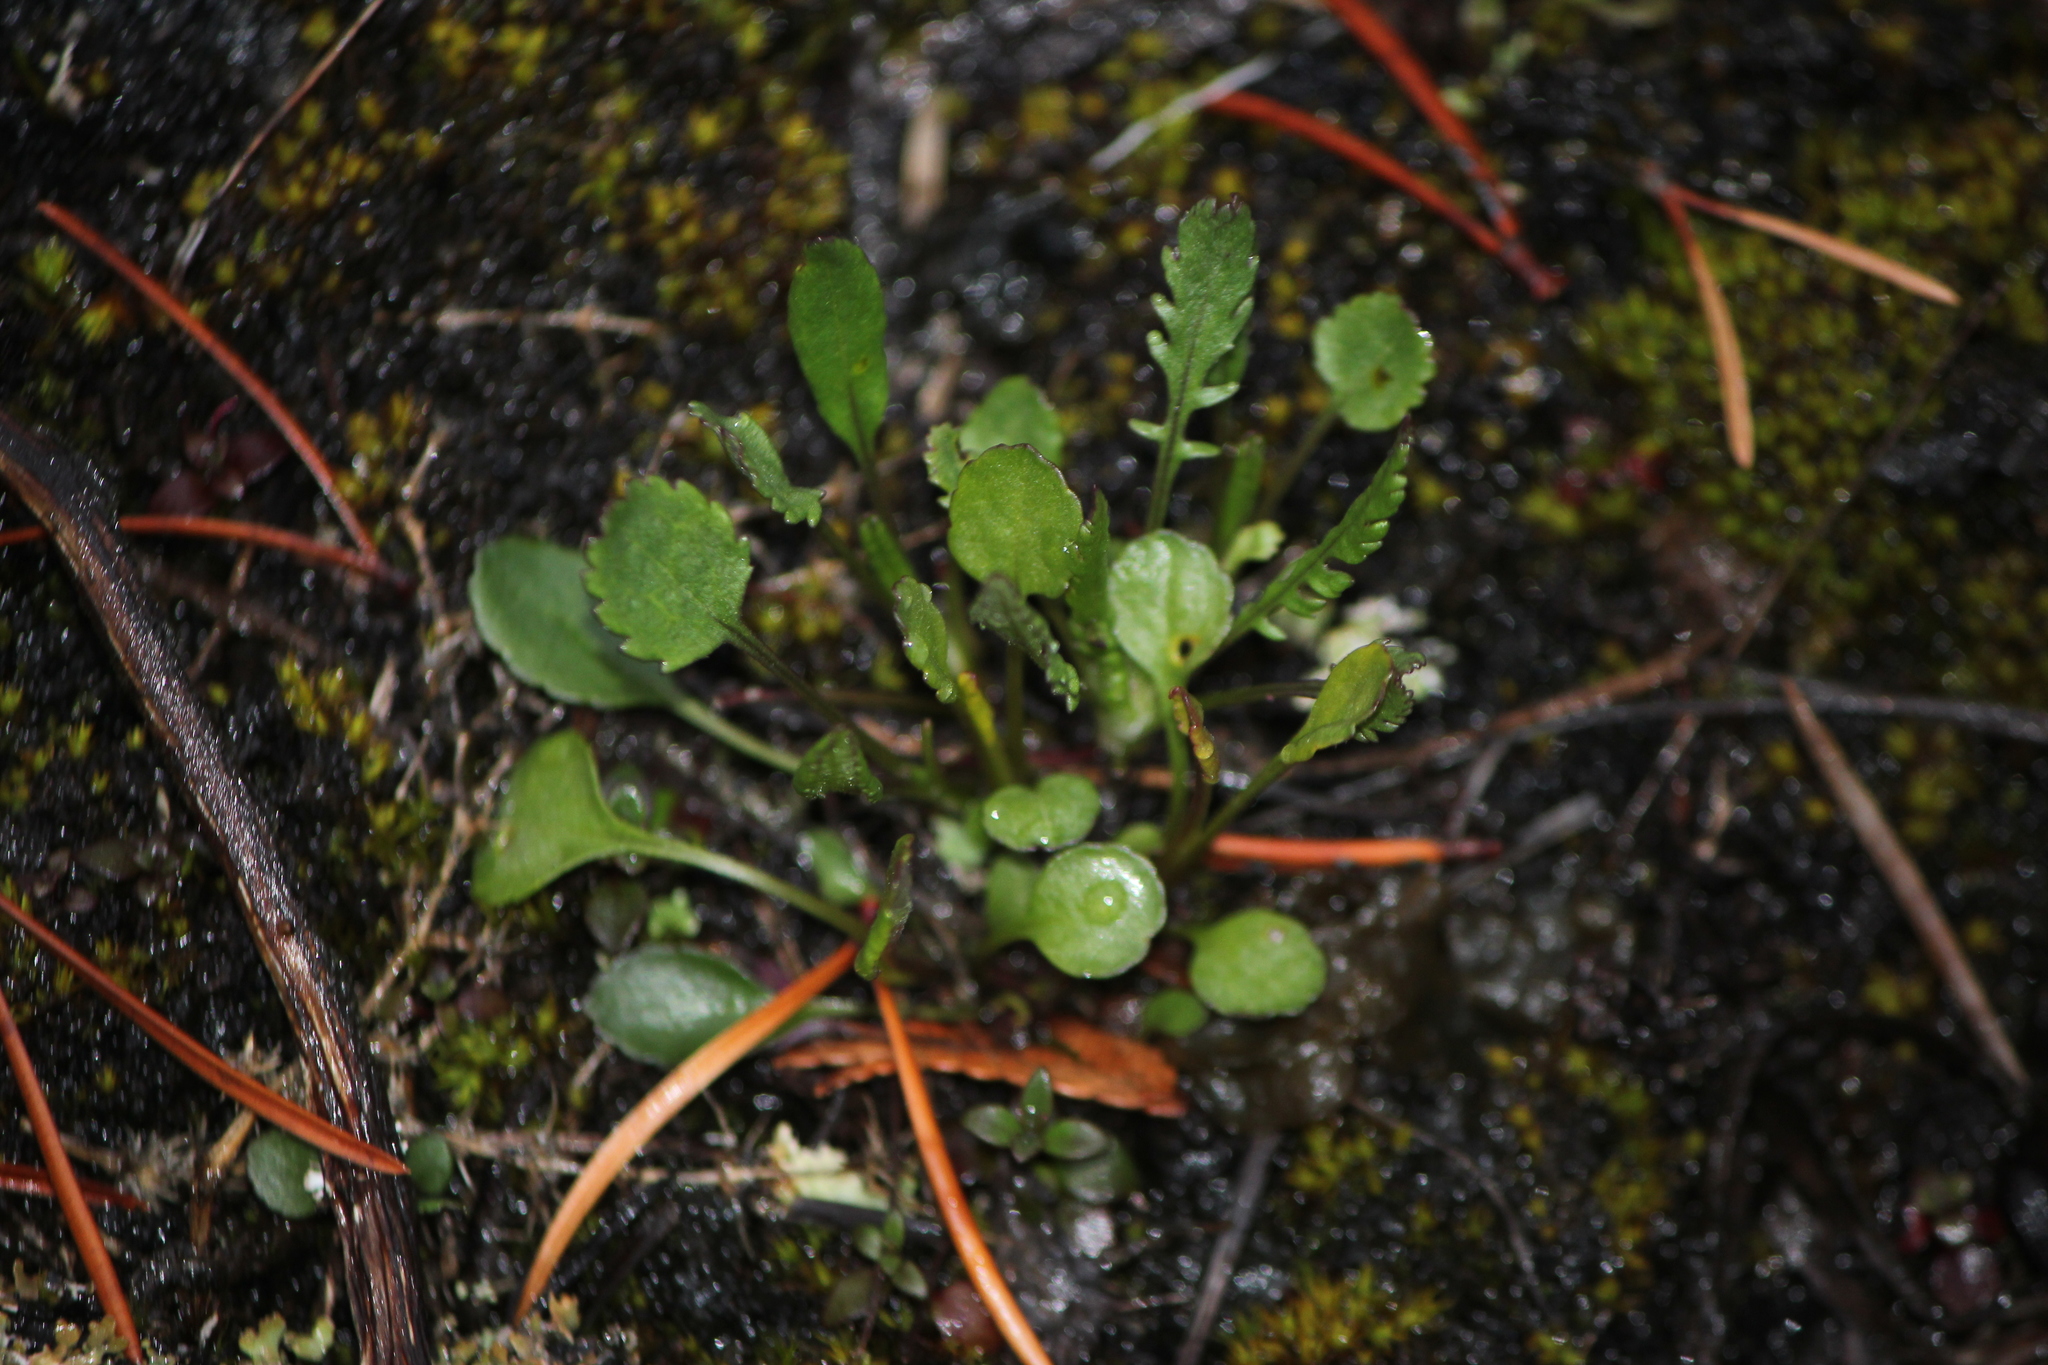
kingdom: Plantae
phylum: Tracheophyta
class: Magnoliopsida
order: Asterales
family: Asteraceae
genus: Packera
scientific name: Packera obovata
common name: Round-leaf ragwort
